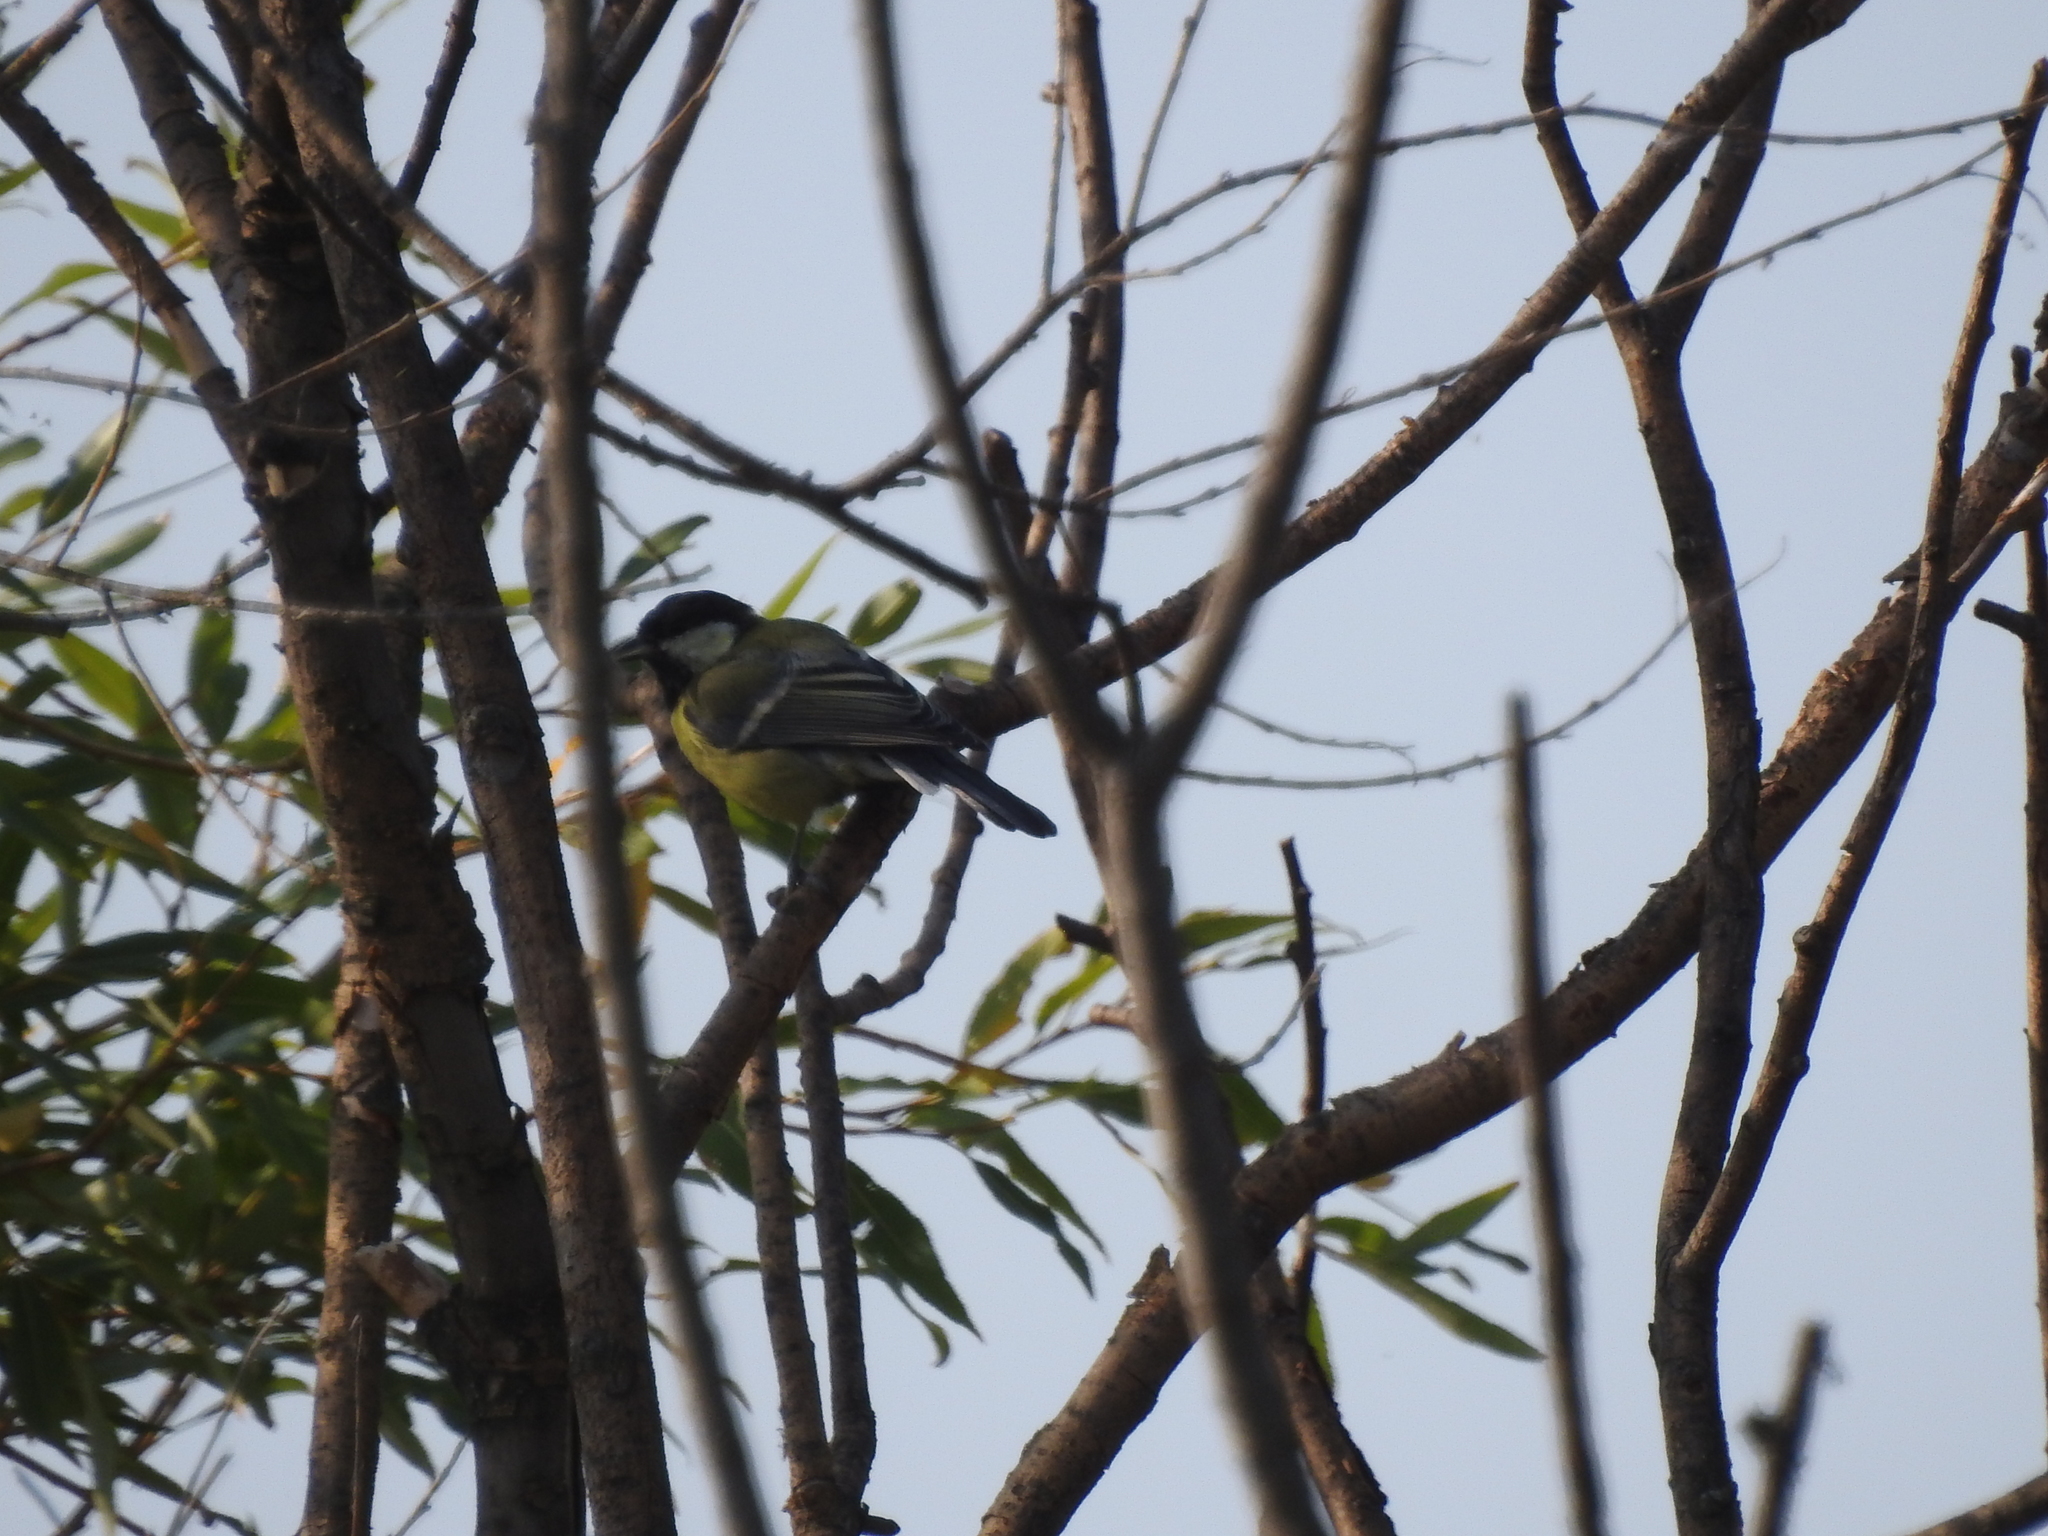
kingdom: Animalia
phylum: Chordata
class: Aves
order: Passeriformes
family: Paridae
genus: Parus
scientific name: Parus major
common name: Great tit
